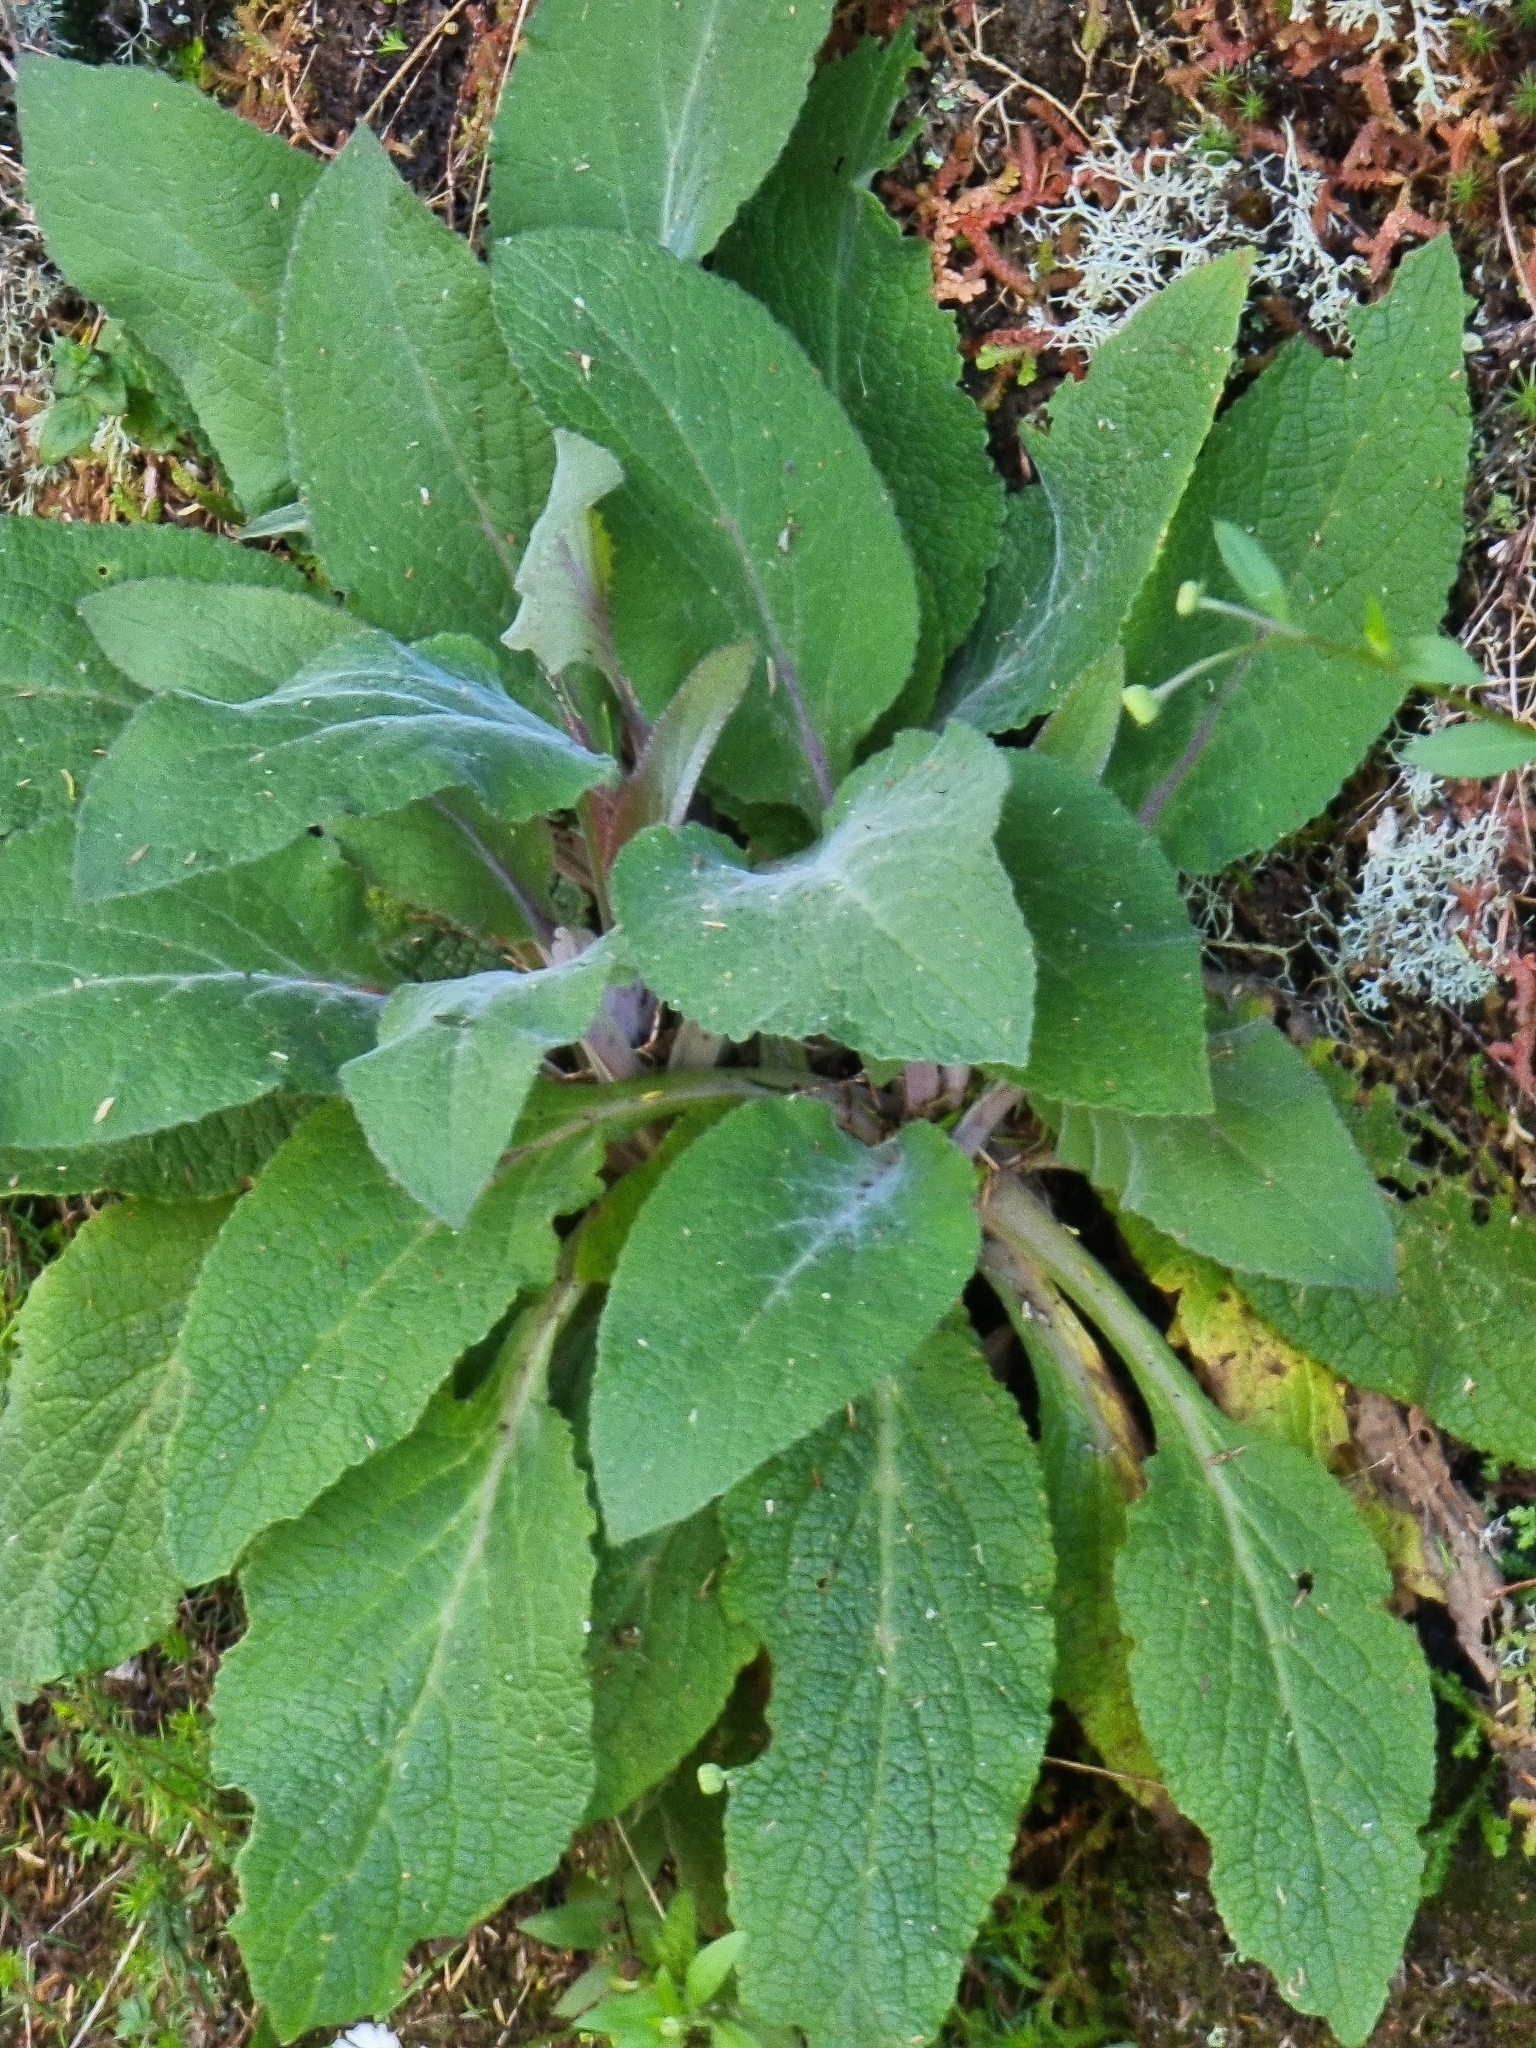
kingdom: Plantae
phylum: Tracheophyta
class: Magnoliopsida
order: Lamiales
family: Plantaginaceae
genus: Digitalis
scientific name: Digitalis purpurea
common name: Foxglove
